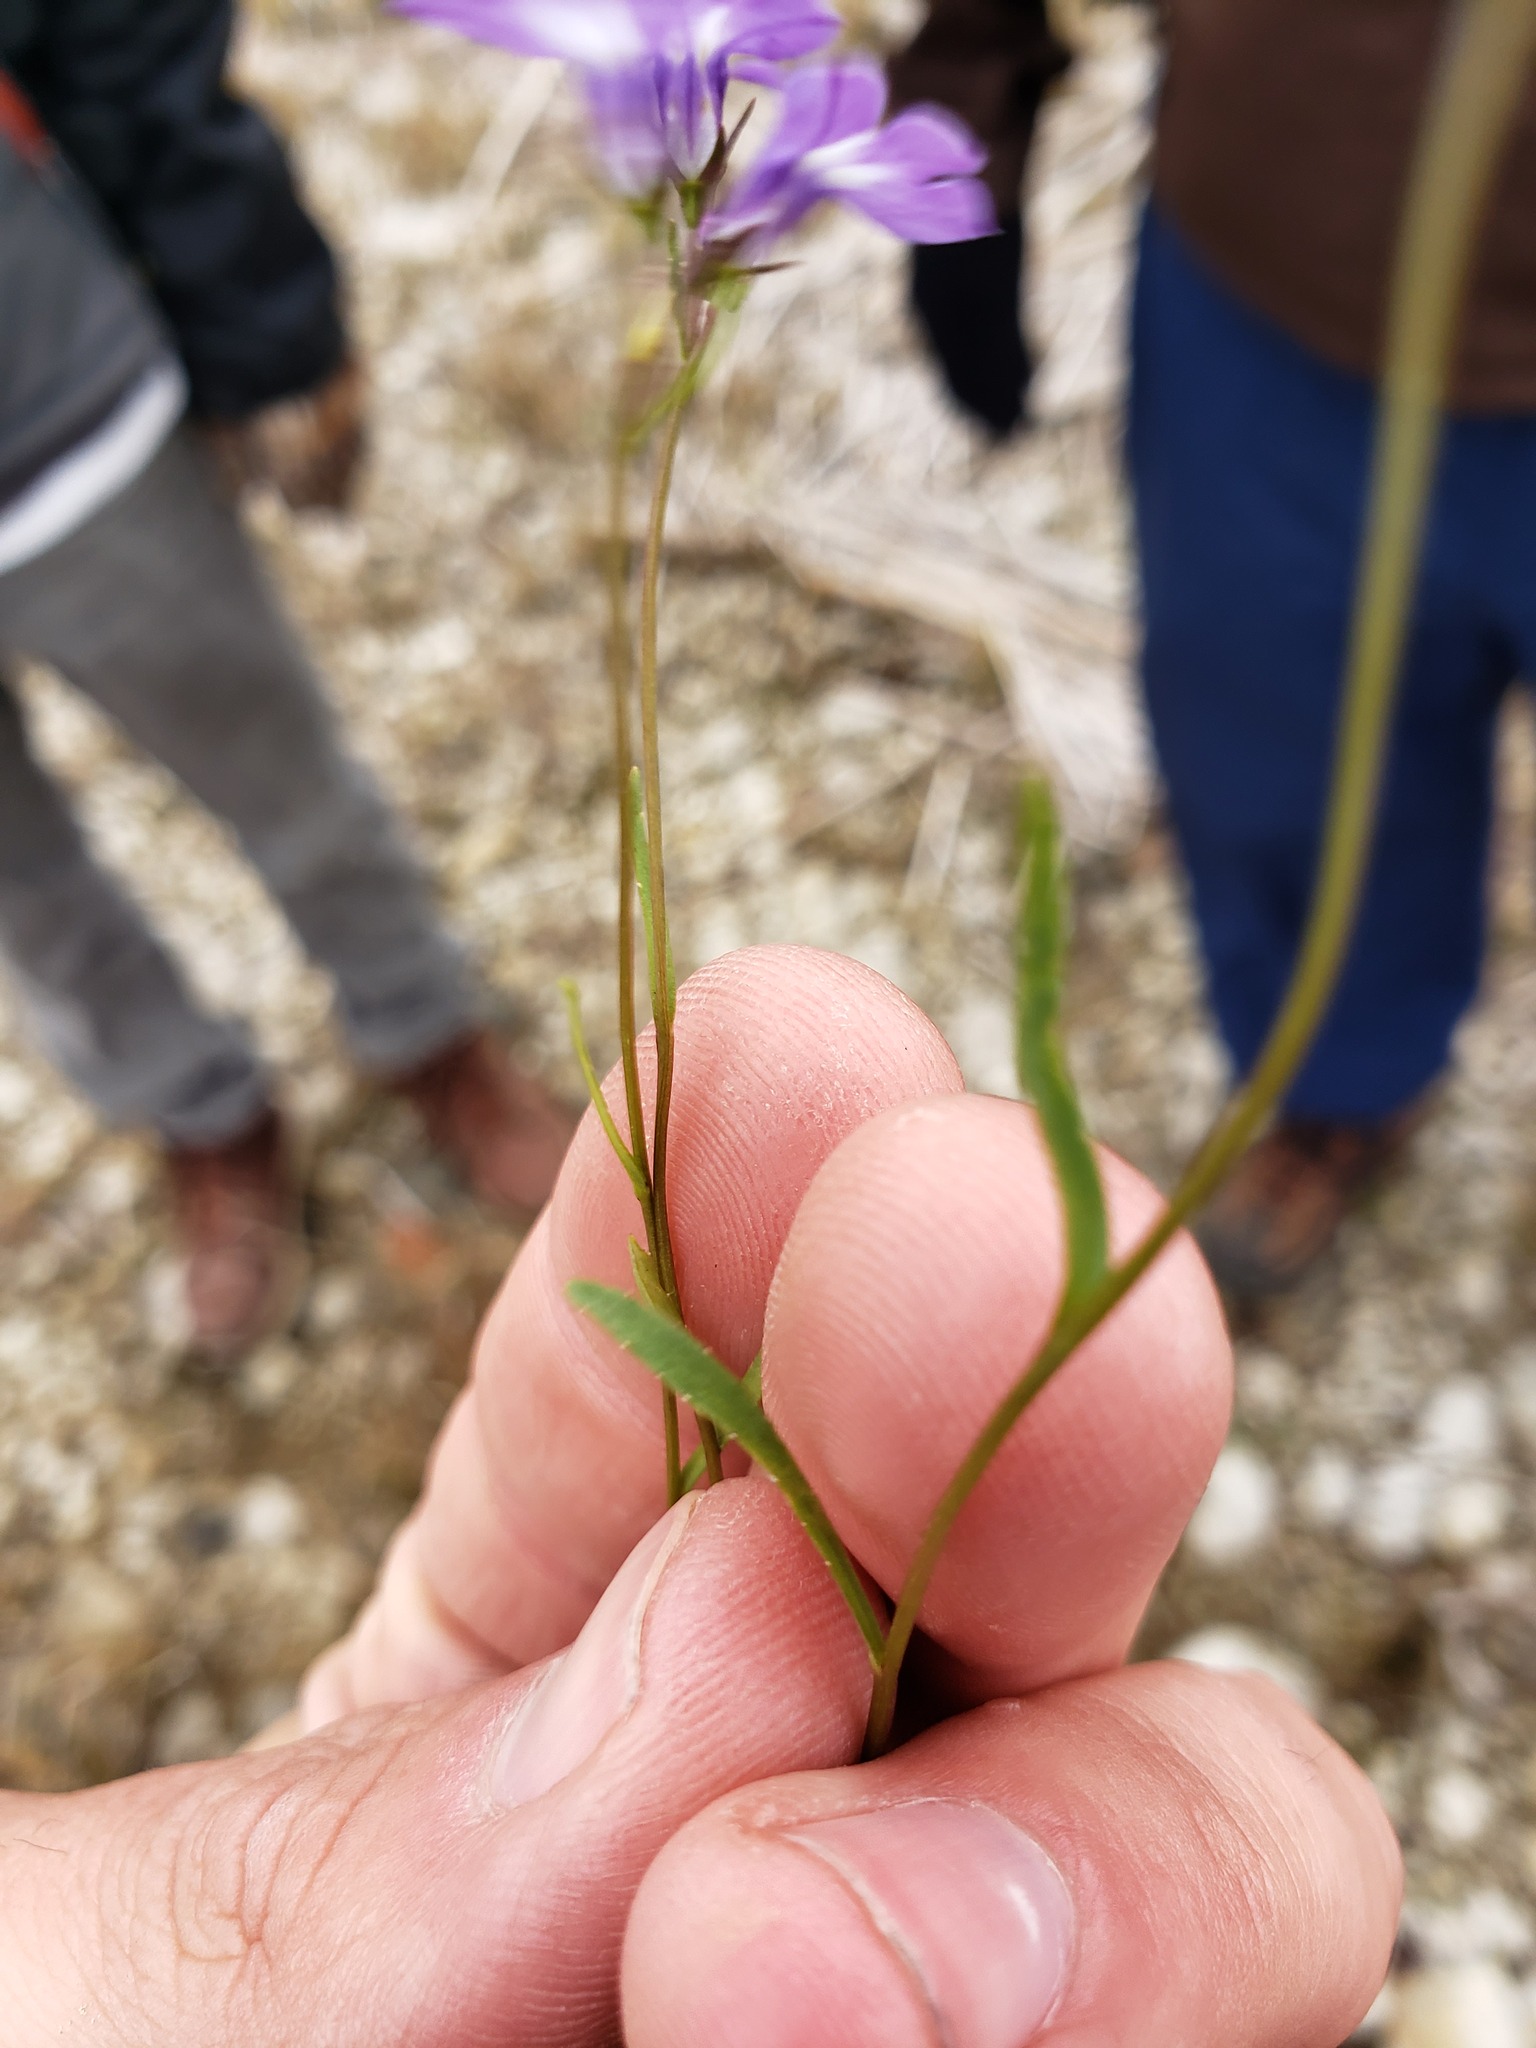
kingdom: Plantae
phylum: Tracheophyta
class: Magnoliopsida
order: Asterales
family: Campanulaceae
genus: Lobelia
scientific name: Lobelia kalmii
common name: Kalm's lobelia
